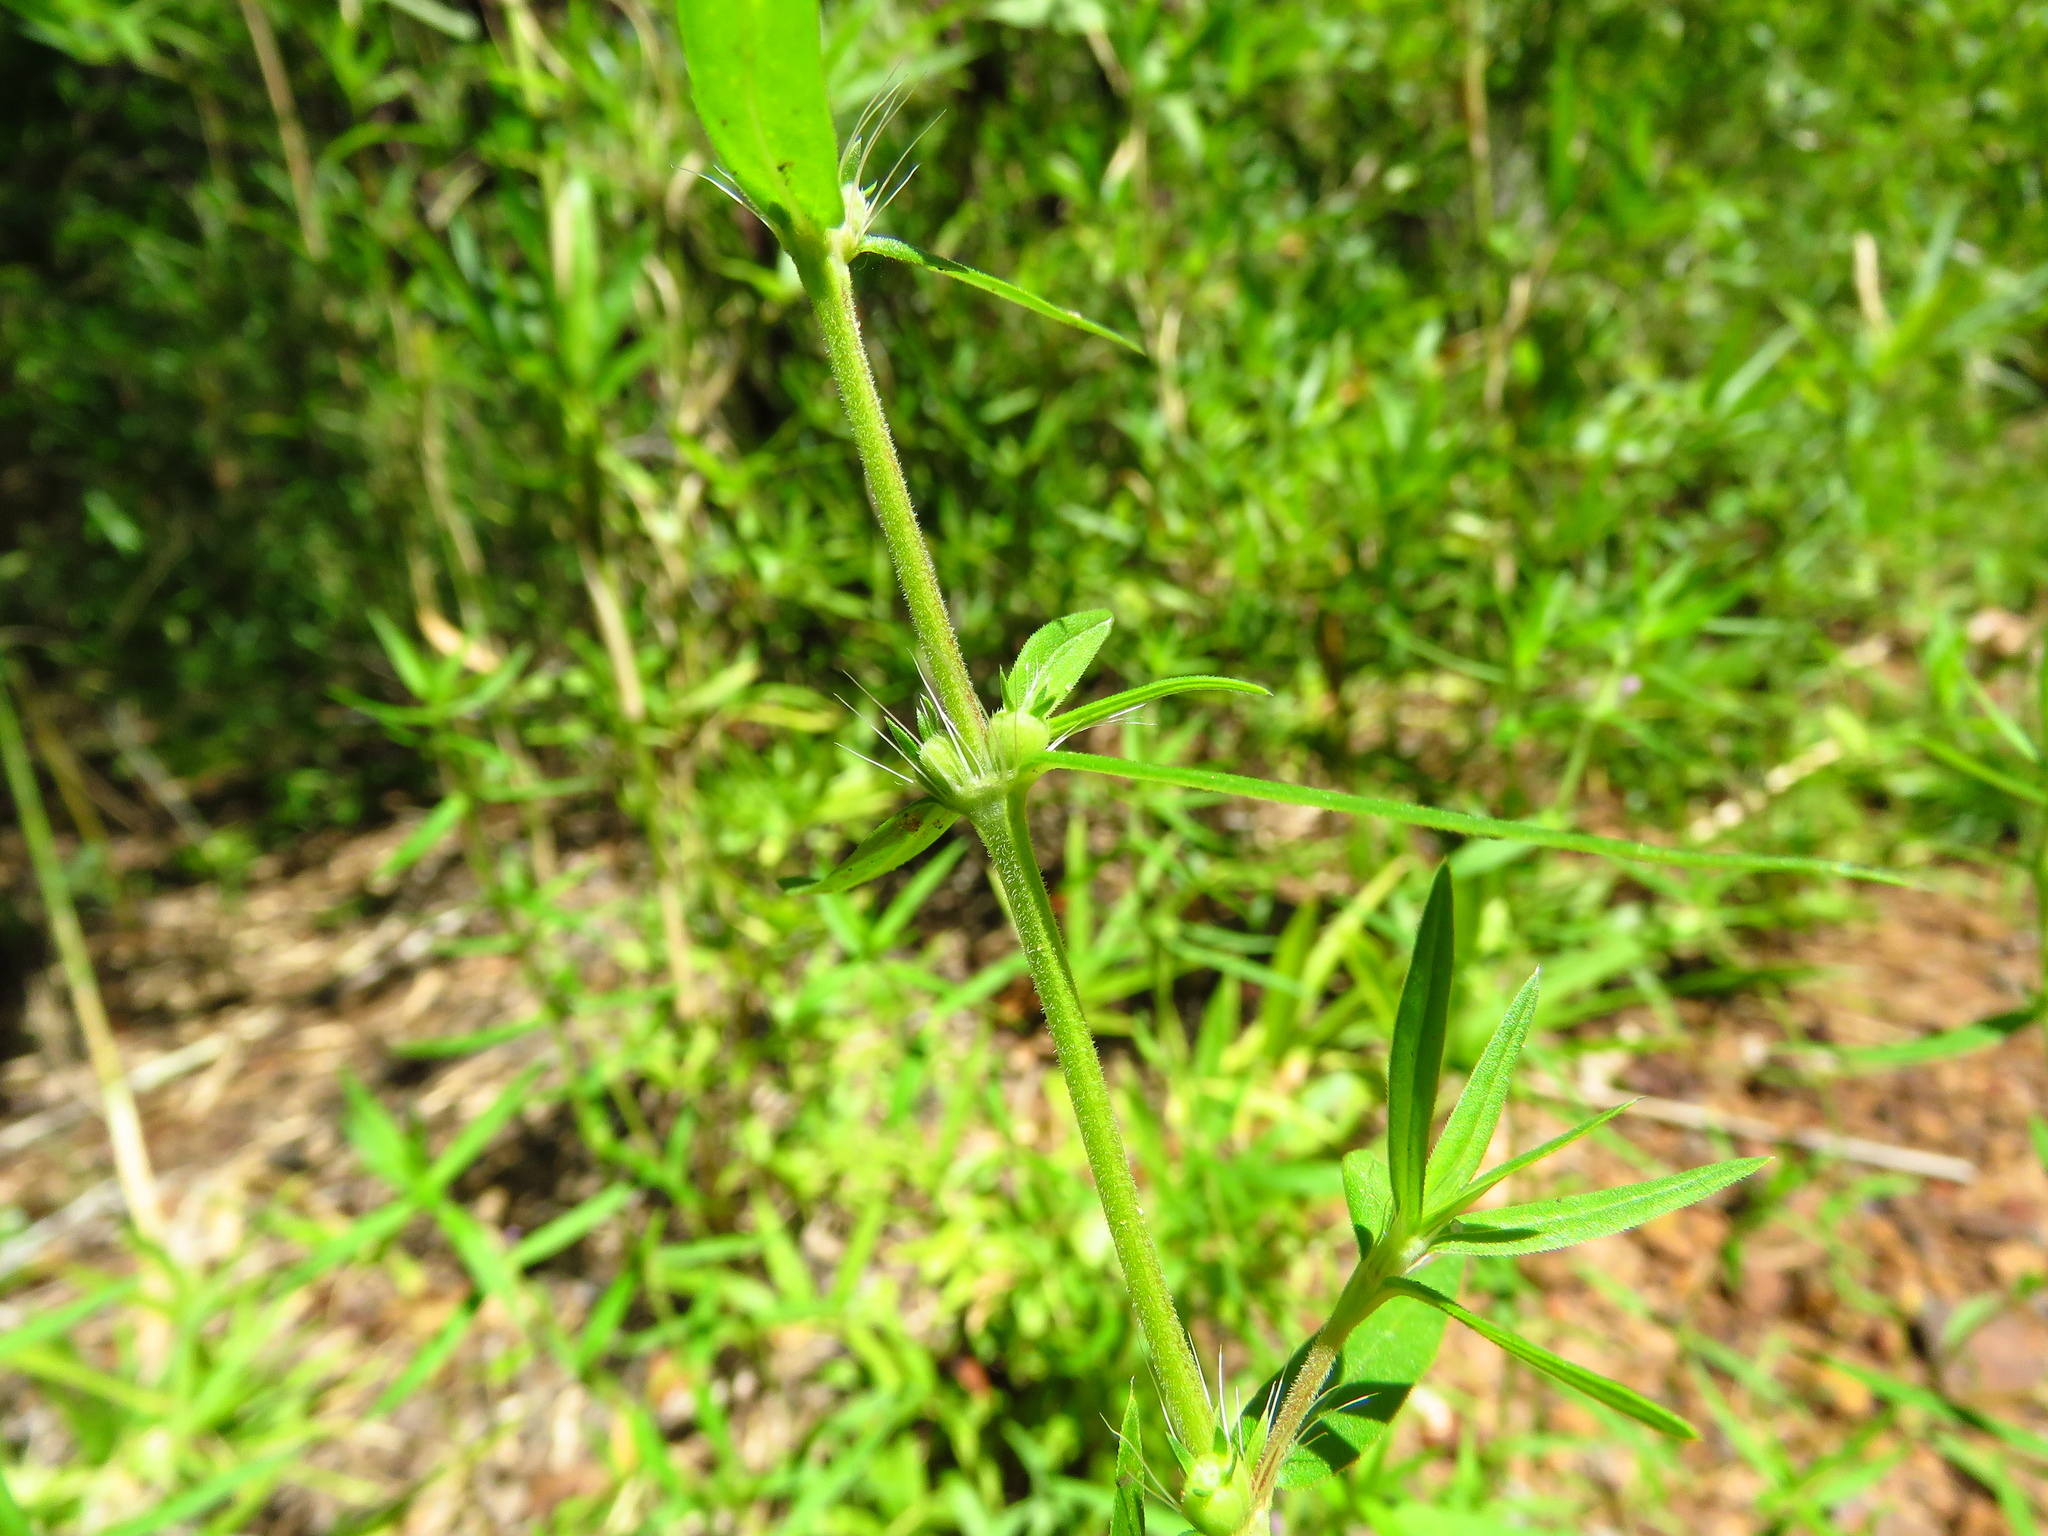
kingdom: Plantae
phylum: Tracheophyta
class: Magnoliopsida
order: Gentianales
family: Rubiaceae
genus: Hexasepalum
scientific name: Hexasepalum teres
